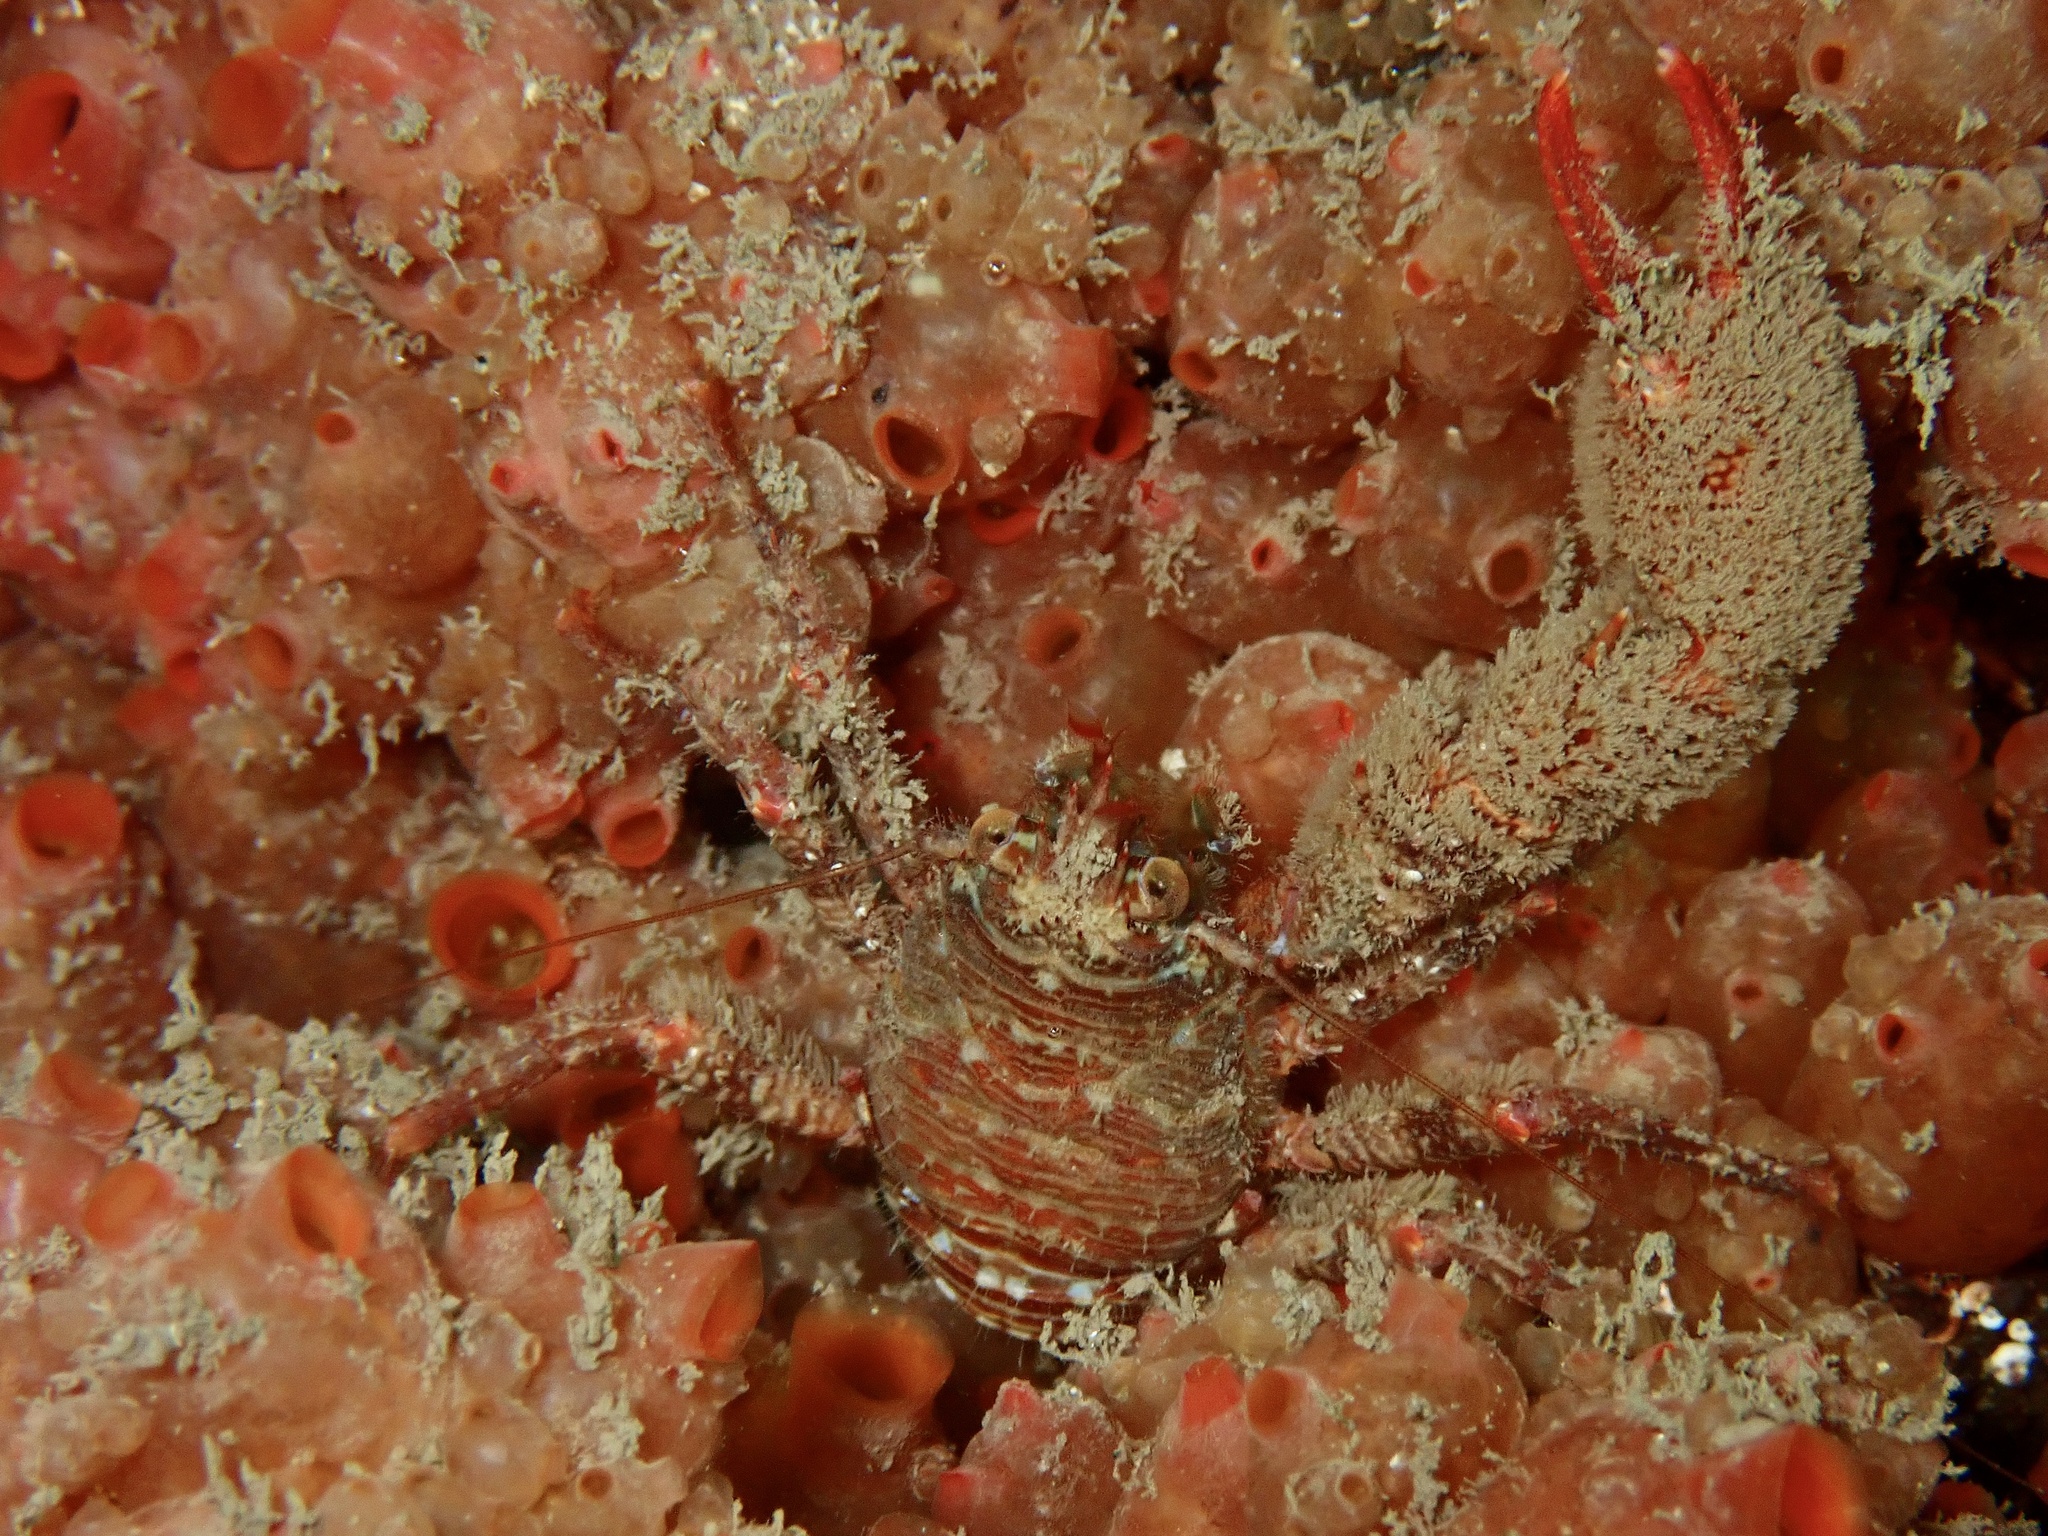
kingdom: Animalia
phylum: Arthropoda
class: Malacostraca
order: Decapoda
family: Galatheidae
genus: Galathea
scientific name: Galathea nexa
